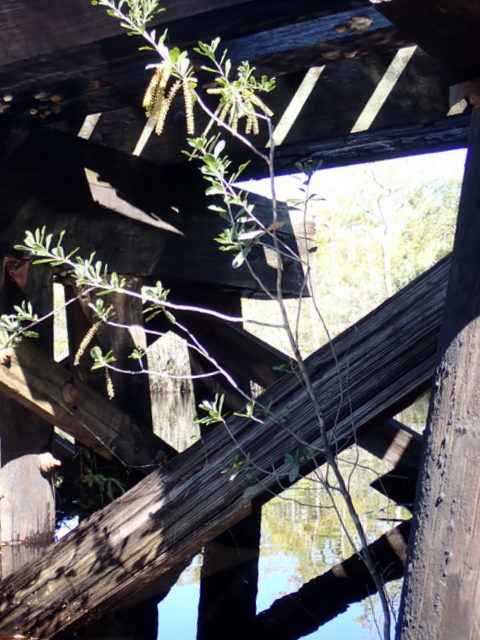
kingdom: Plantae
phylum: Tracheophyta
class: Magnoliopsida
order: Ericales
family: Cyrillaceae
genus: Cyrilla
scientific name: Cyrilla racemiflora
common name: Black titi
